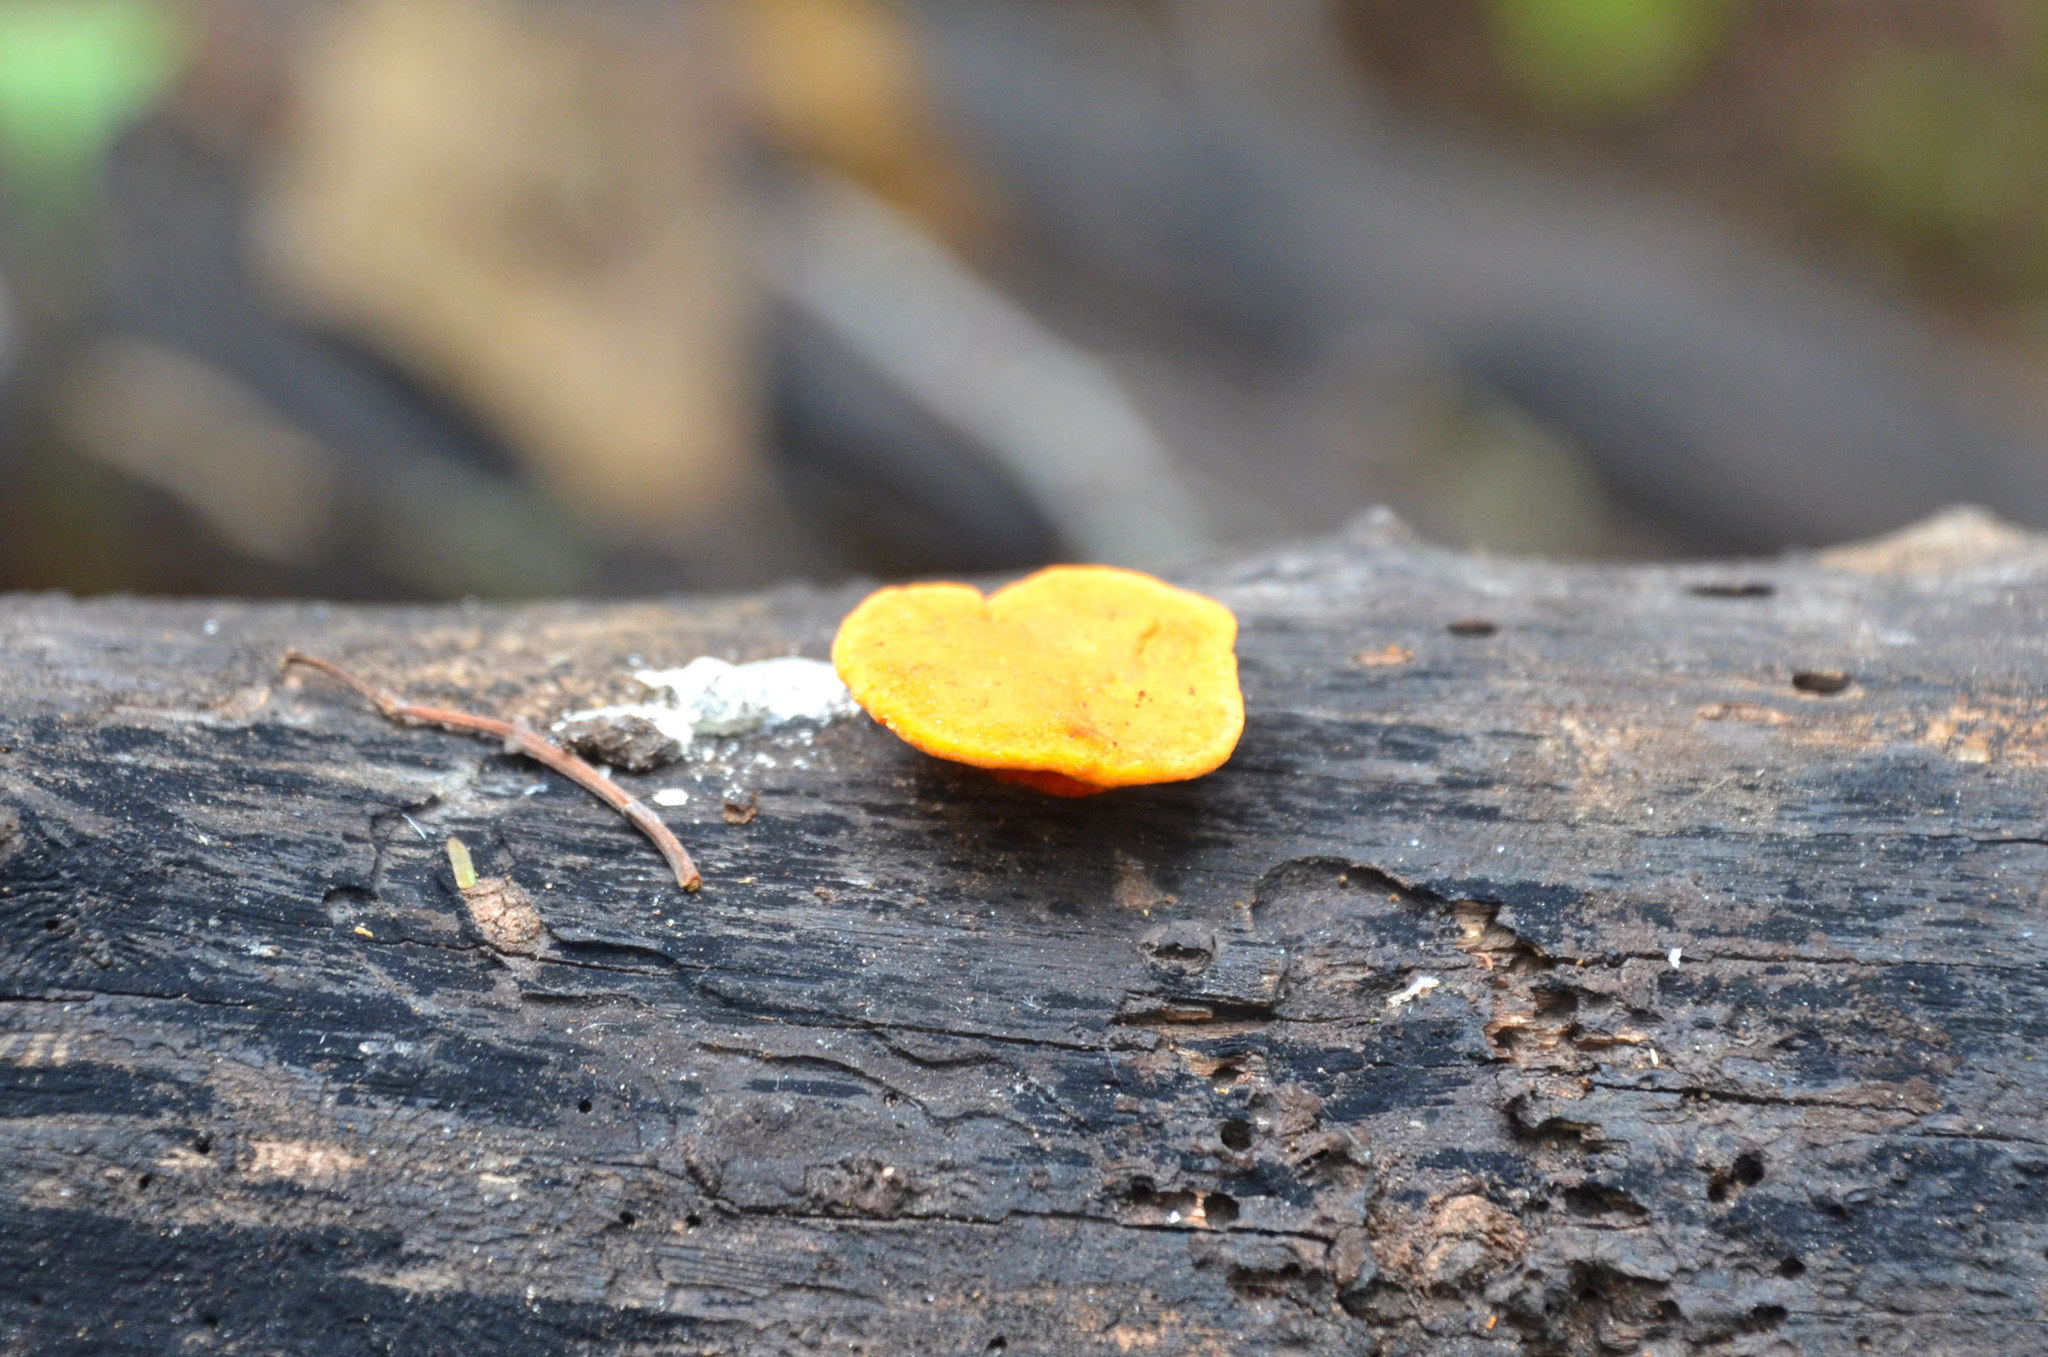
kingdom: Fungi
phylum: Basidiomycota
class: Agaricomycetes
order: Polyporales
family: Polyporaceae
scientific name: Polyporaceae
